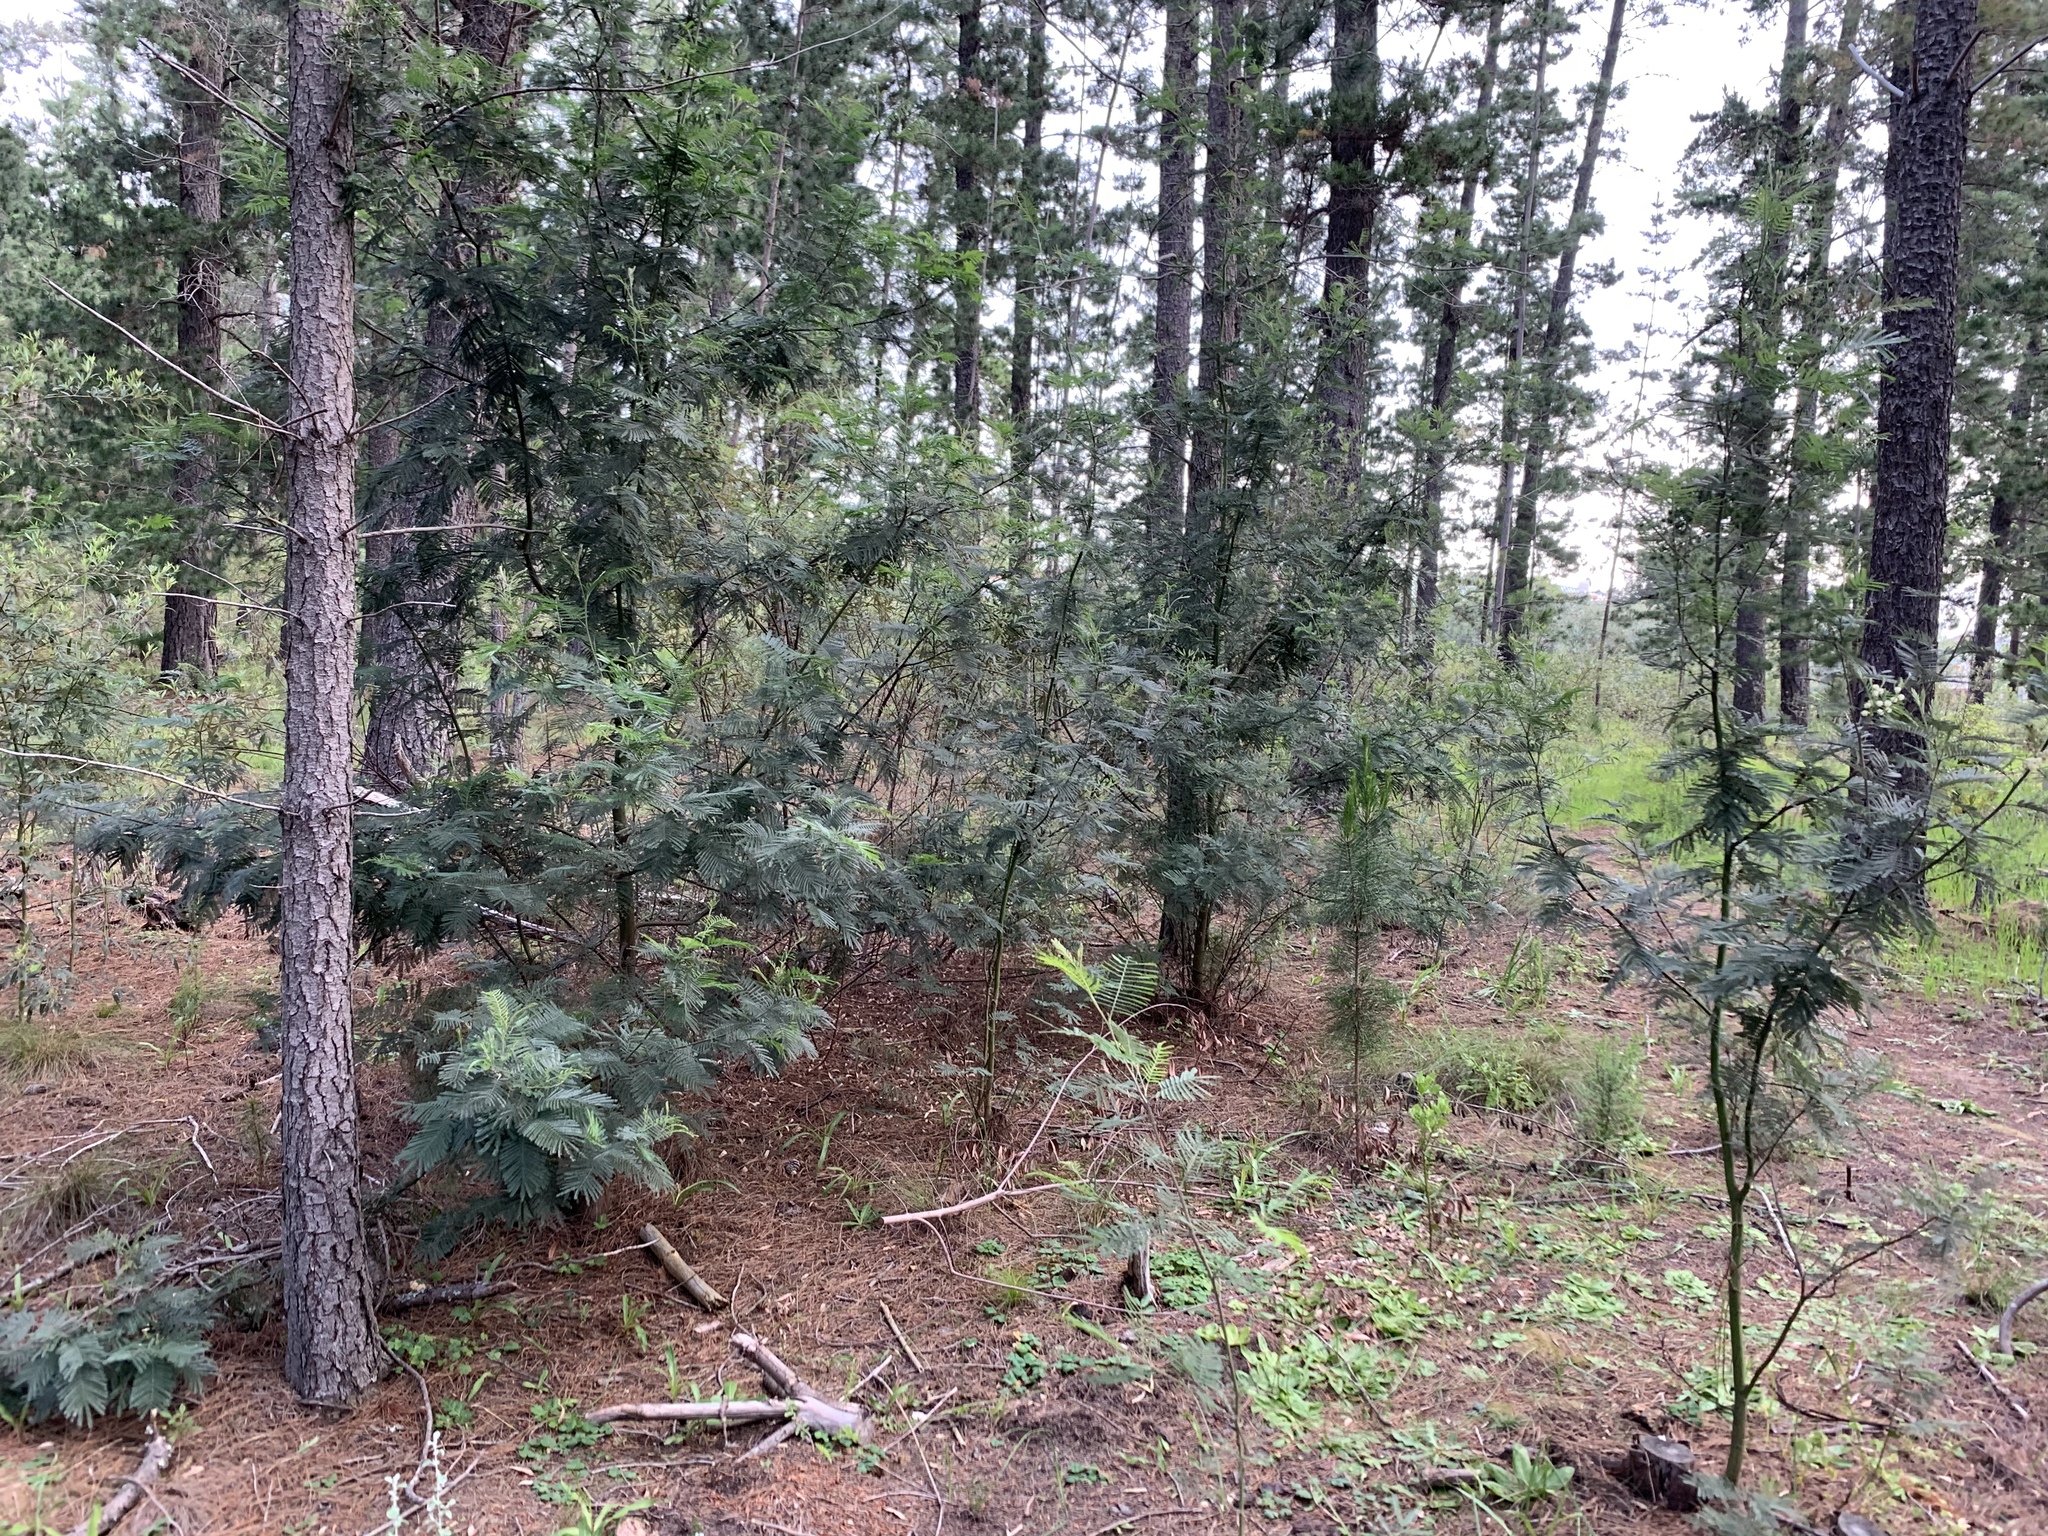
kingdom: Plantae
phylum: Tracheophyta
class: Magnoliopsida
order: Fabales
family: Fabaceae
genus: Acacia
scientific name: Acacia mearnsii
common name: Black wattle
